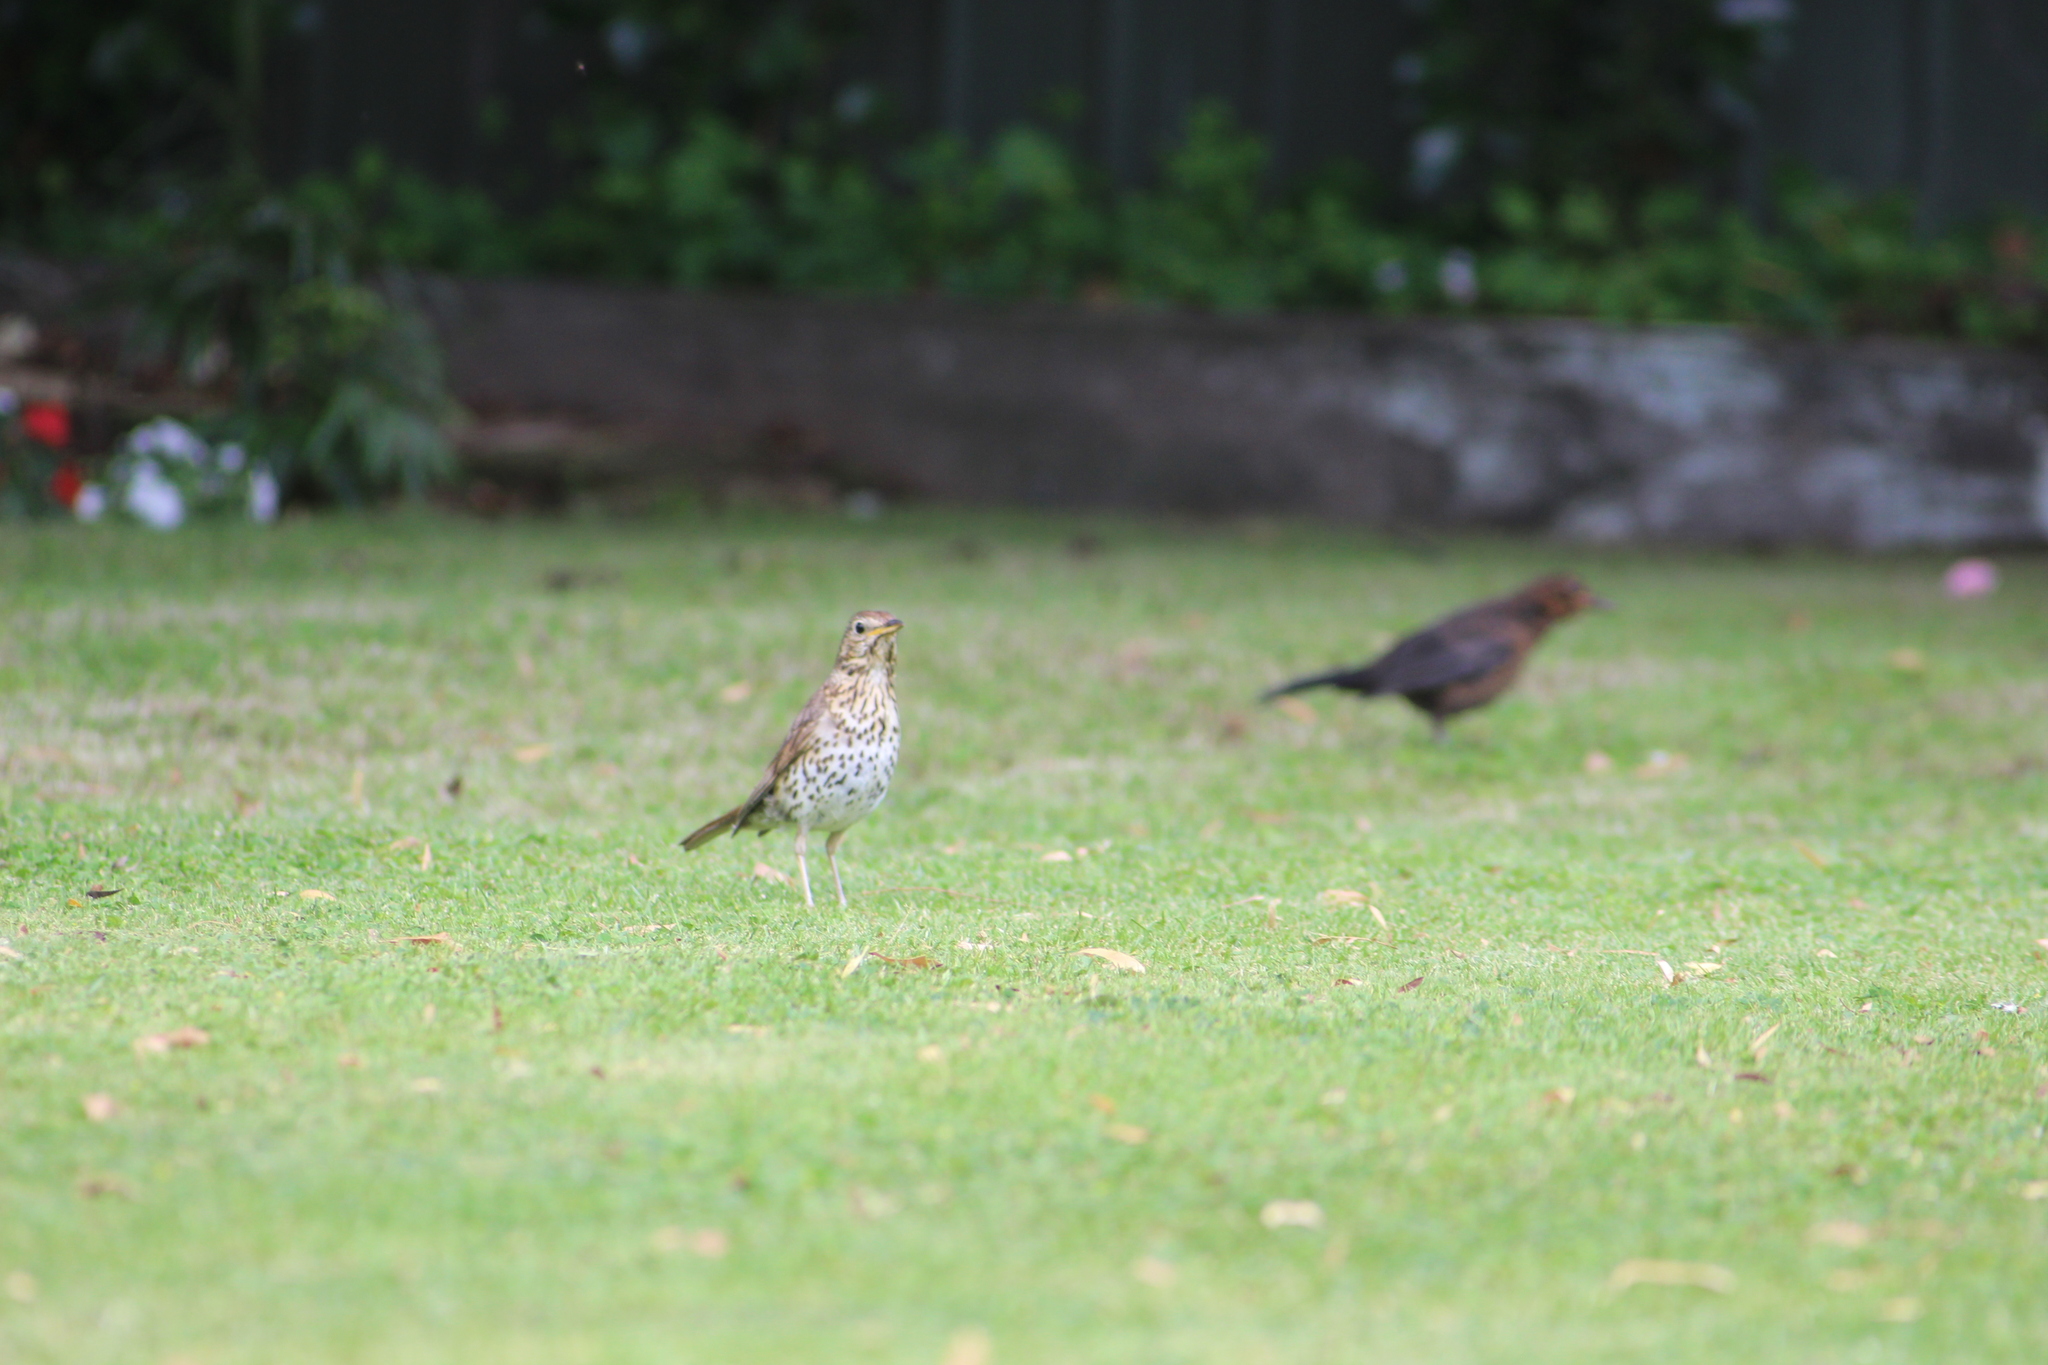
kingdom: Animalia
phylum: Chordata
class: Aves
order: Passeriformes
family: Turdidae
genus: Turdus
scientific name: Turdus merula
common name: Common blackbird
